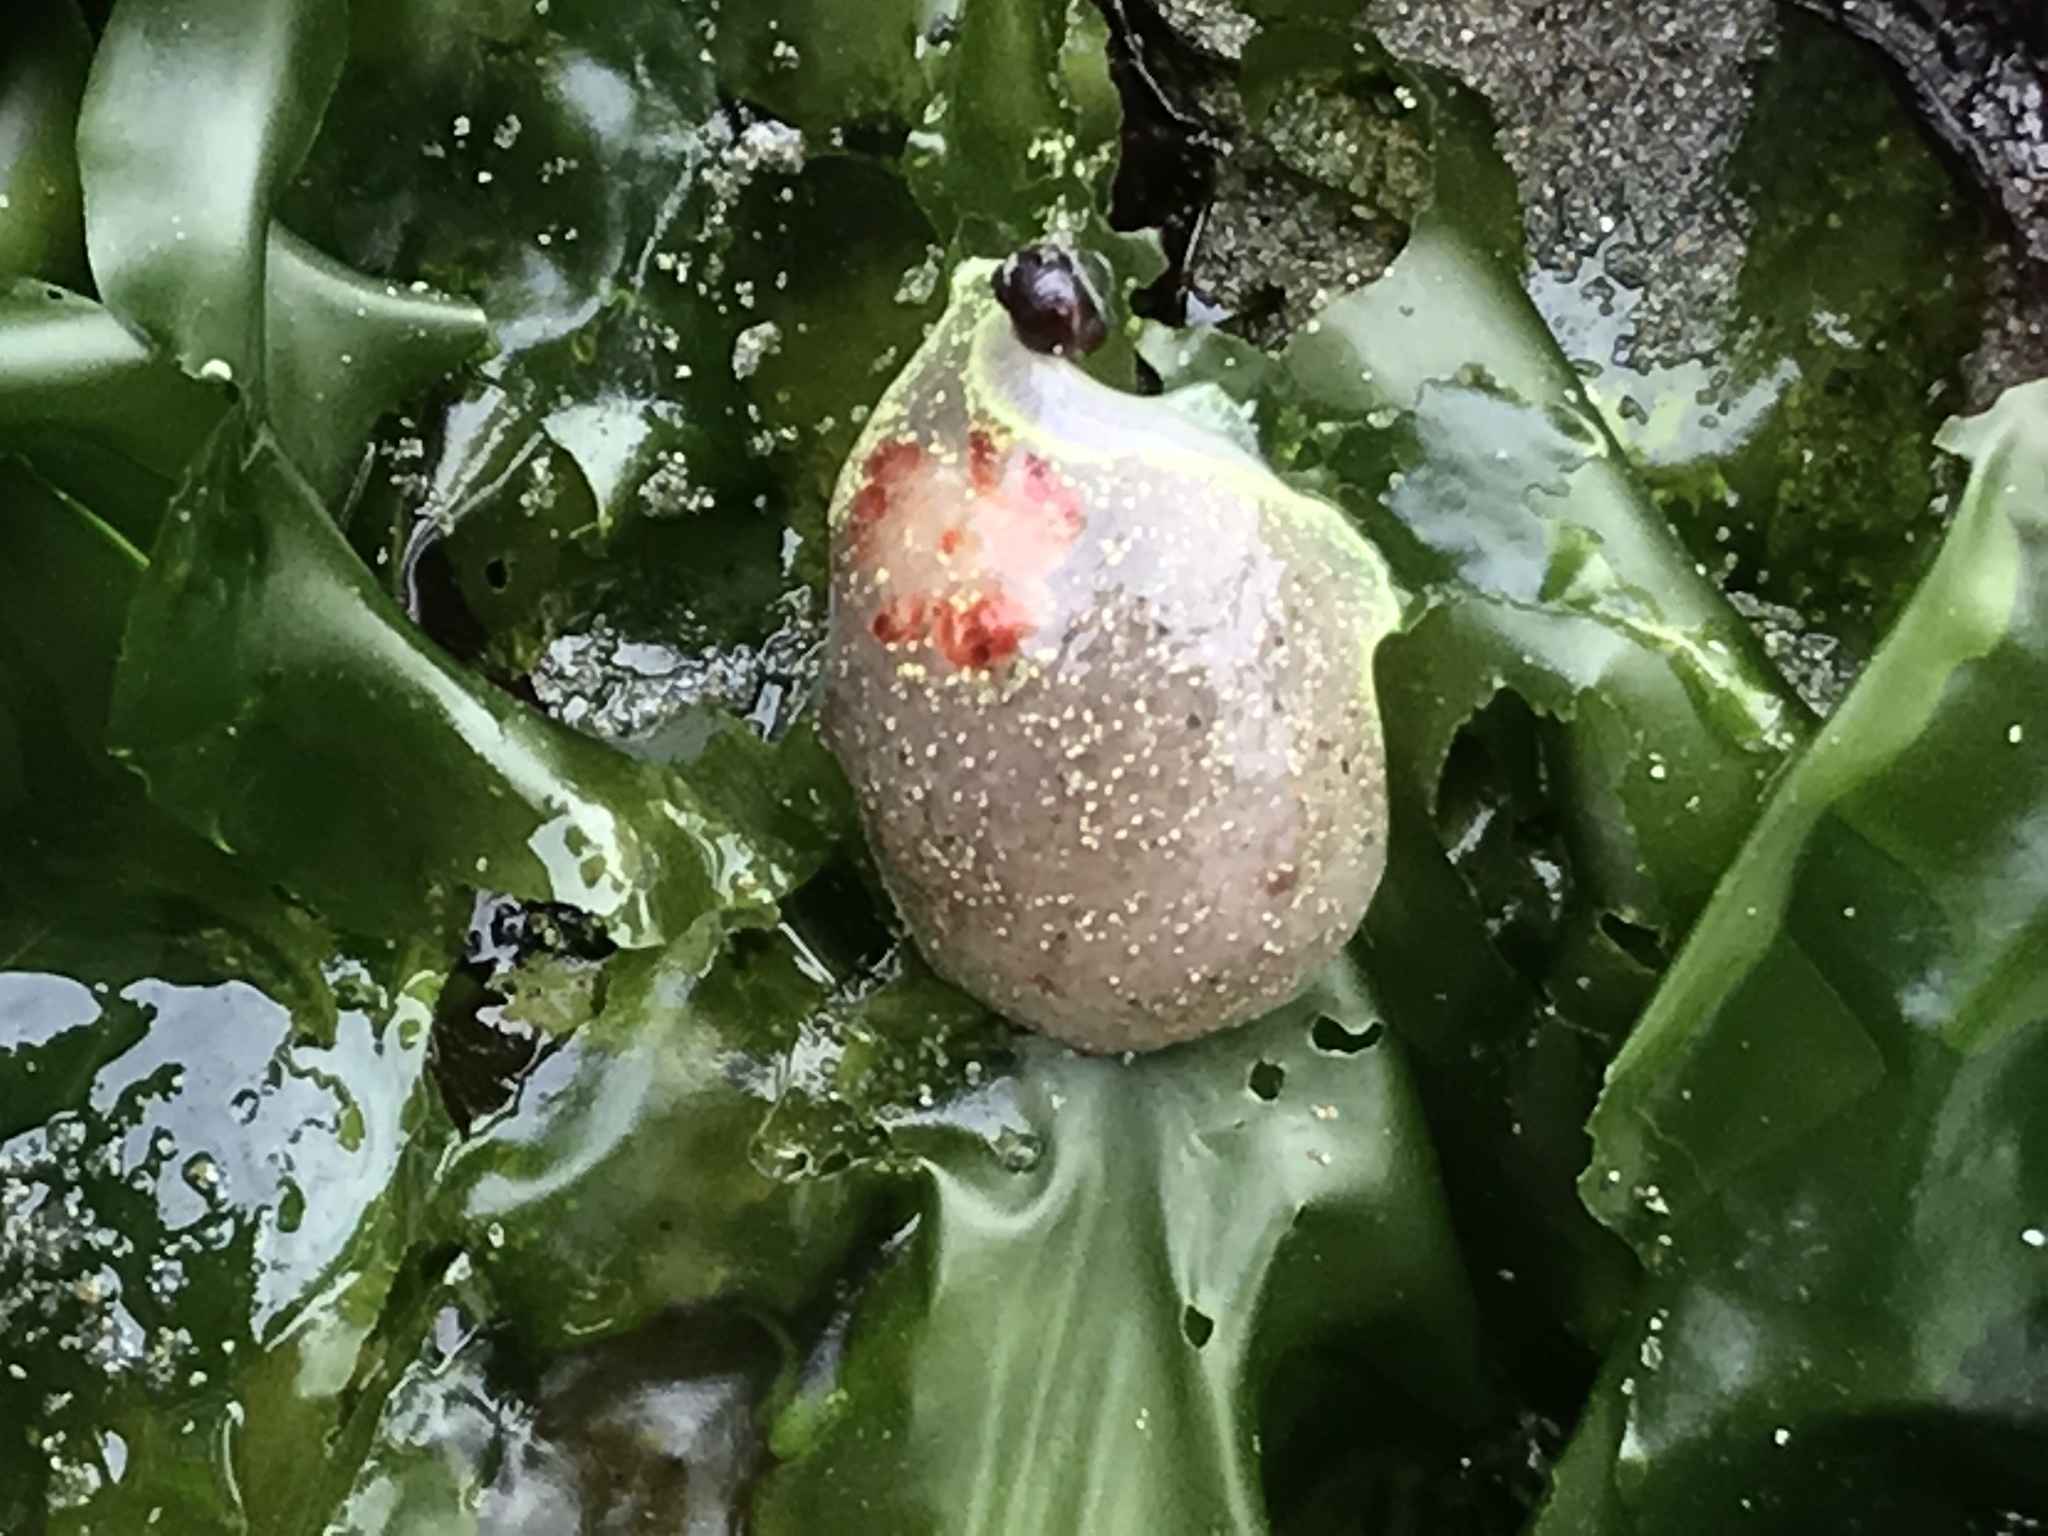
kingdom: Animalia
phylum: Mollusca
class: Gastropoda
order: Nudibranchia
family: Onchidorididae
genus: Acanthodoris
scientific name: Acanthodoris nanaimoensis
